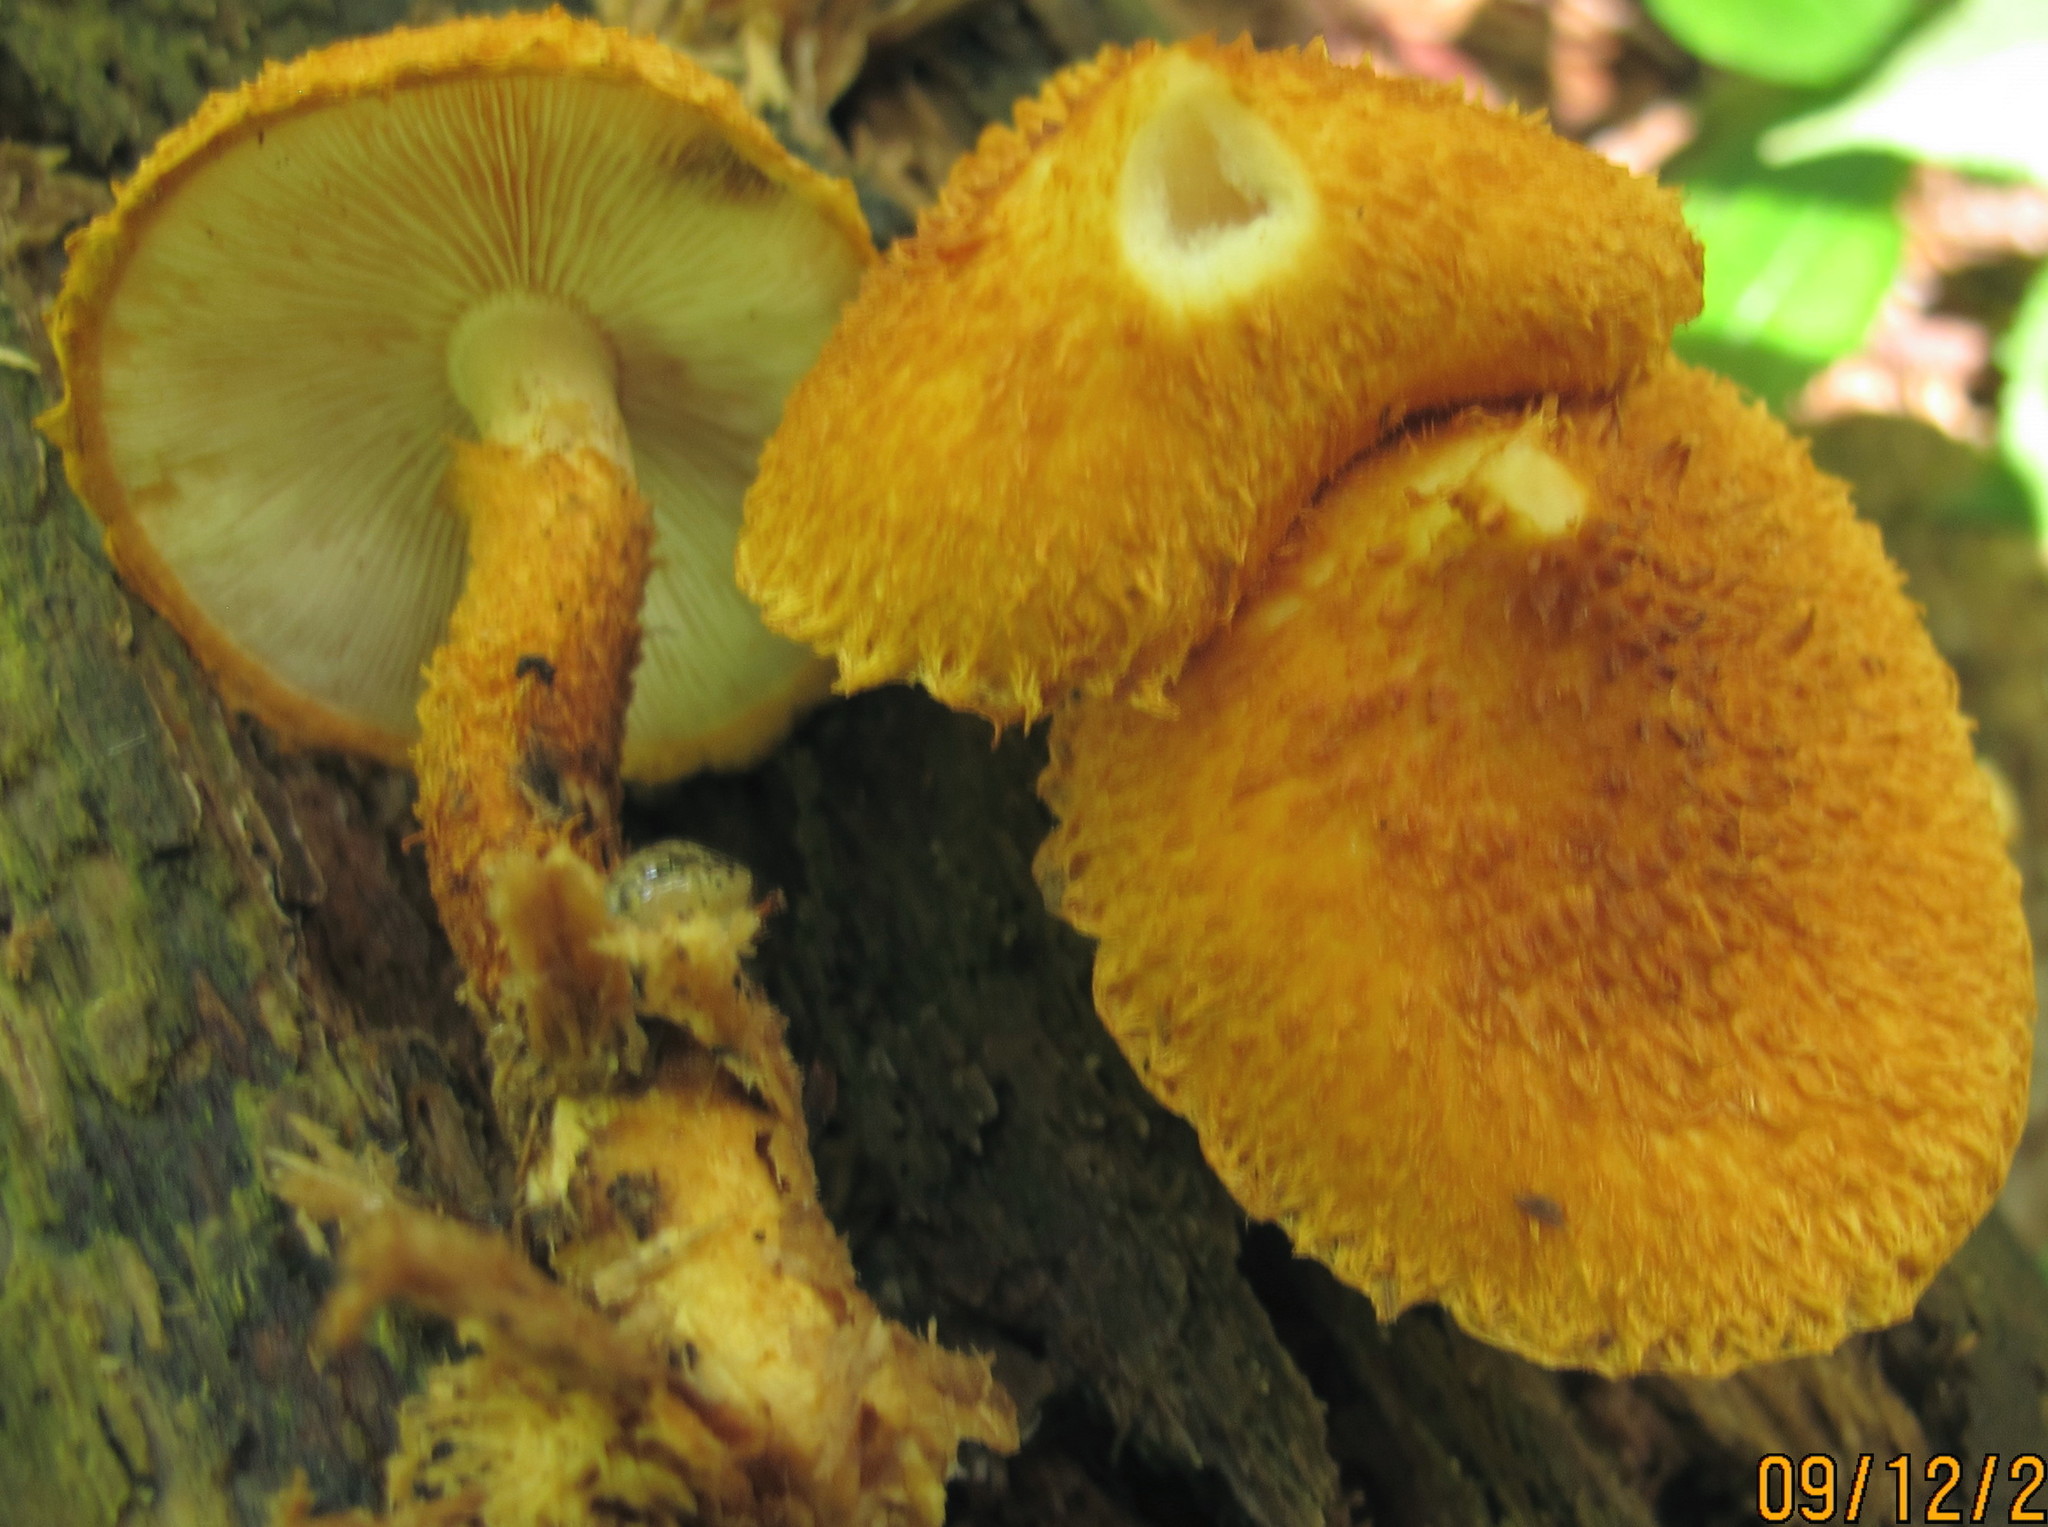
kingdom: Fungi
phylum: Basidiomycota
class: Agaricomycetes
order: Agaricales
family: Agaricaceae
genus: Leucopholiota
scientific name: Leucopholiota decorosa
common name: Decorated pholiota
